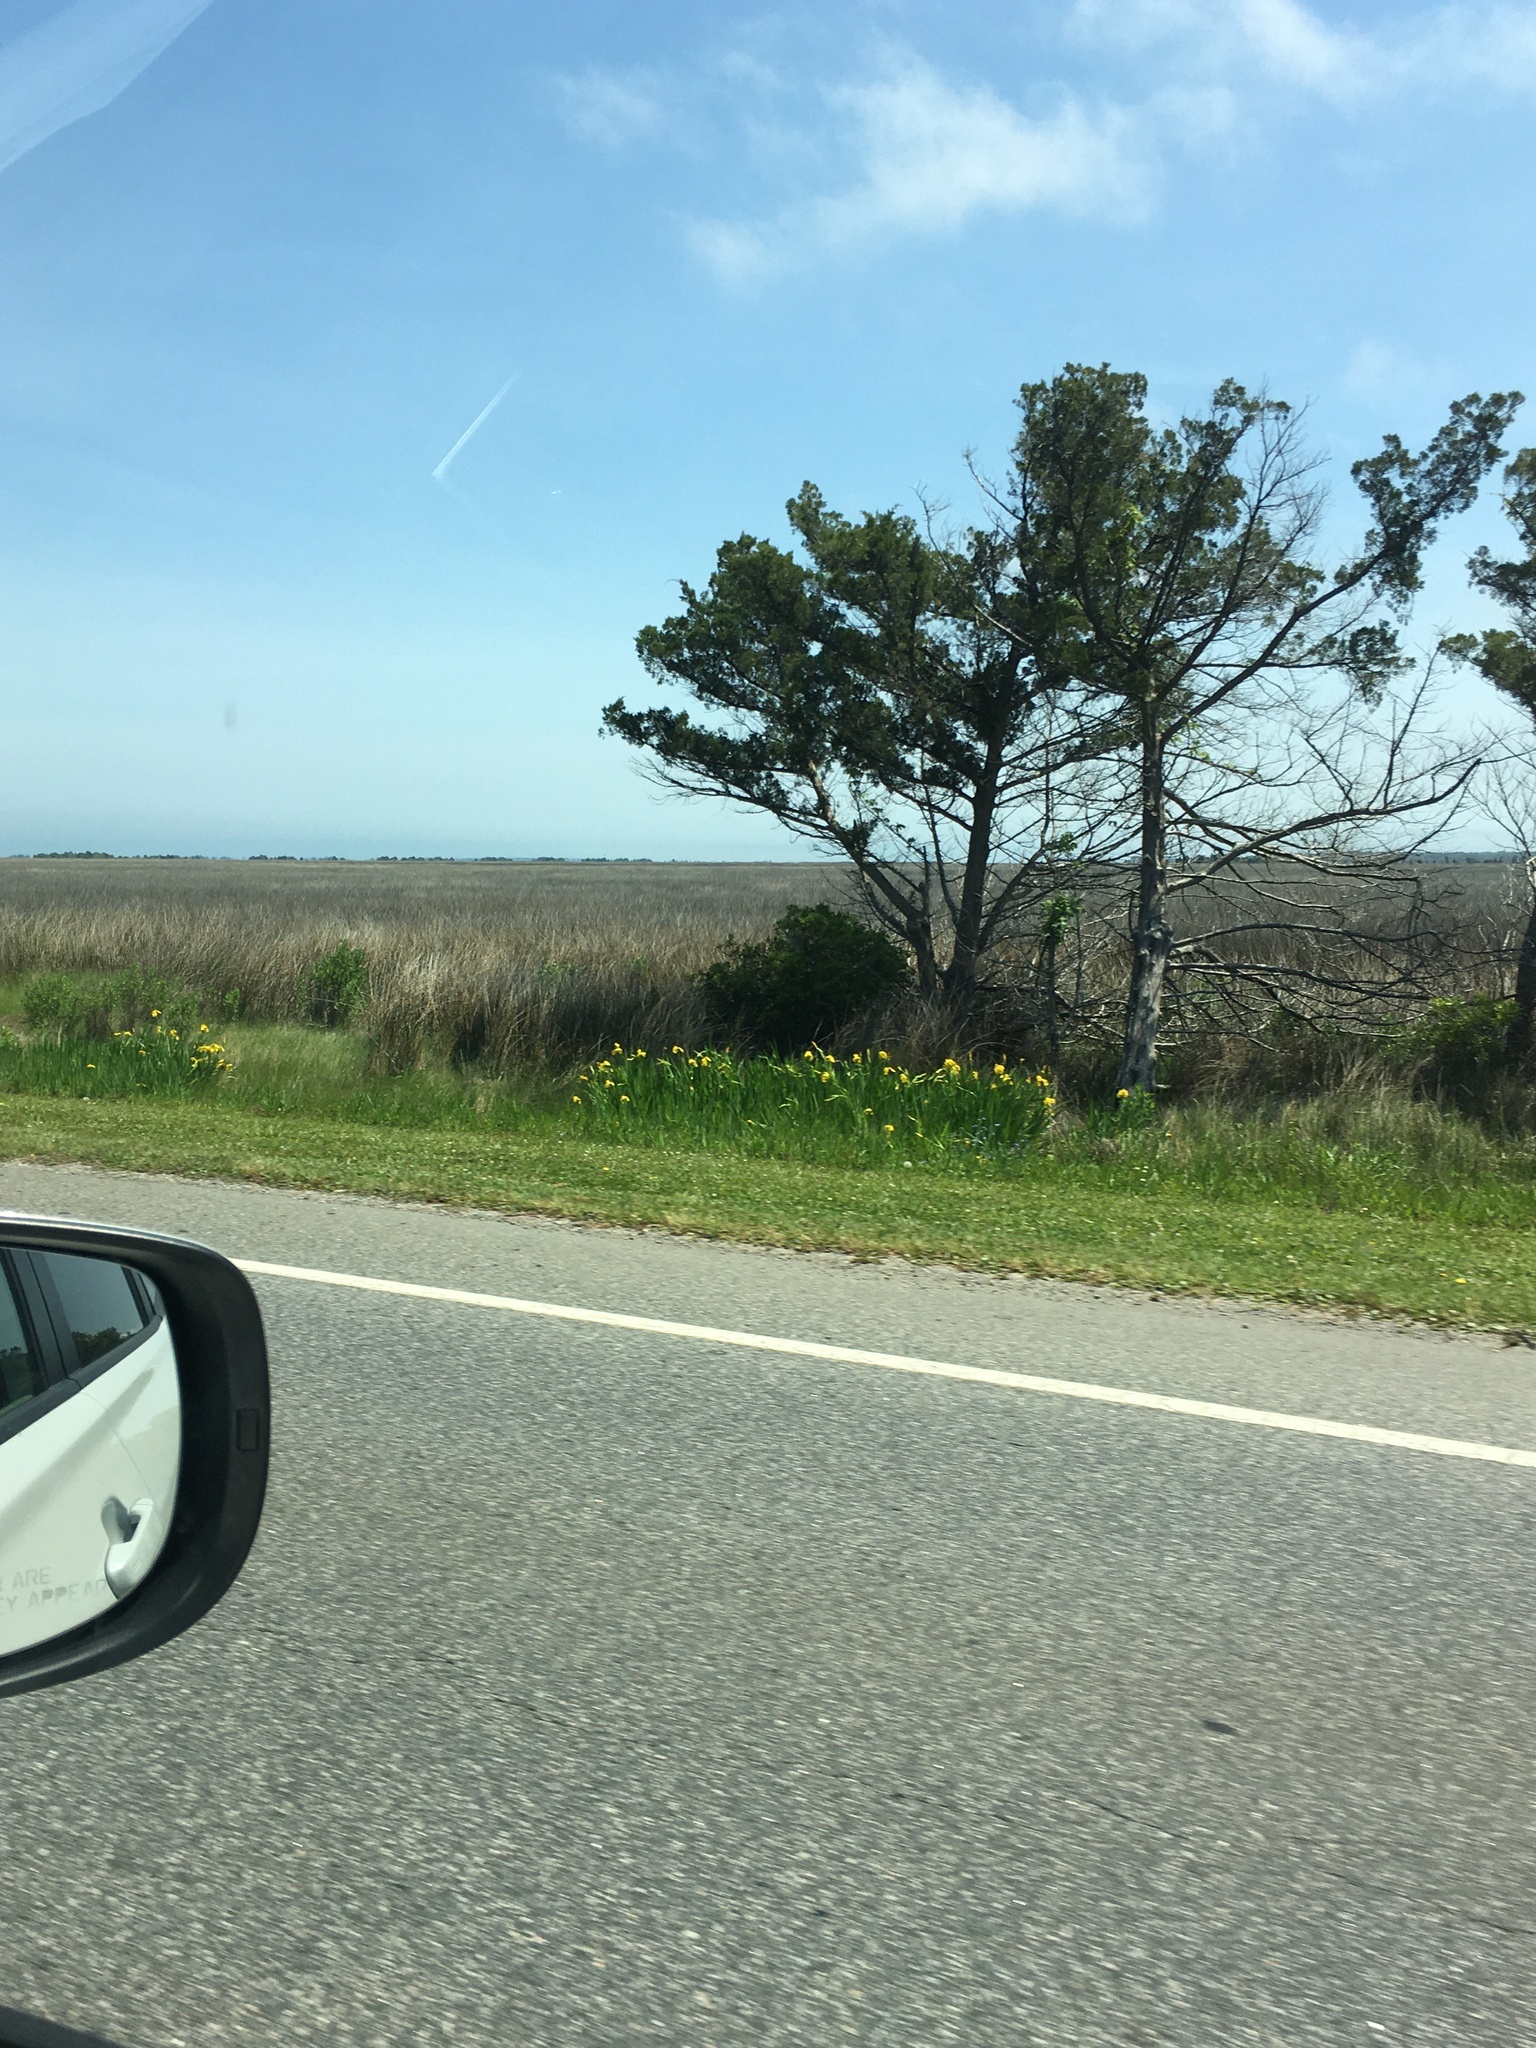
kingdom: Plantae
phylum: Tracheophyta
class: Liliopsida
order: Asparagales
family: Iridaceae
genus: Iris
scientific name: Iris pseudacorus
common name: Yellow flag
